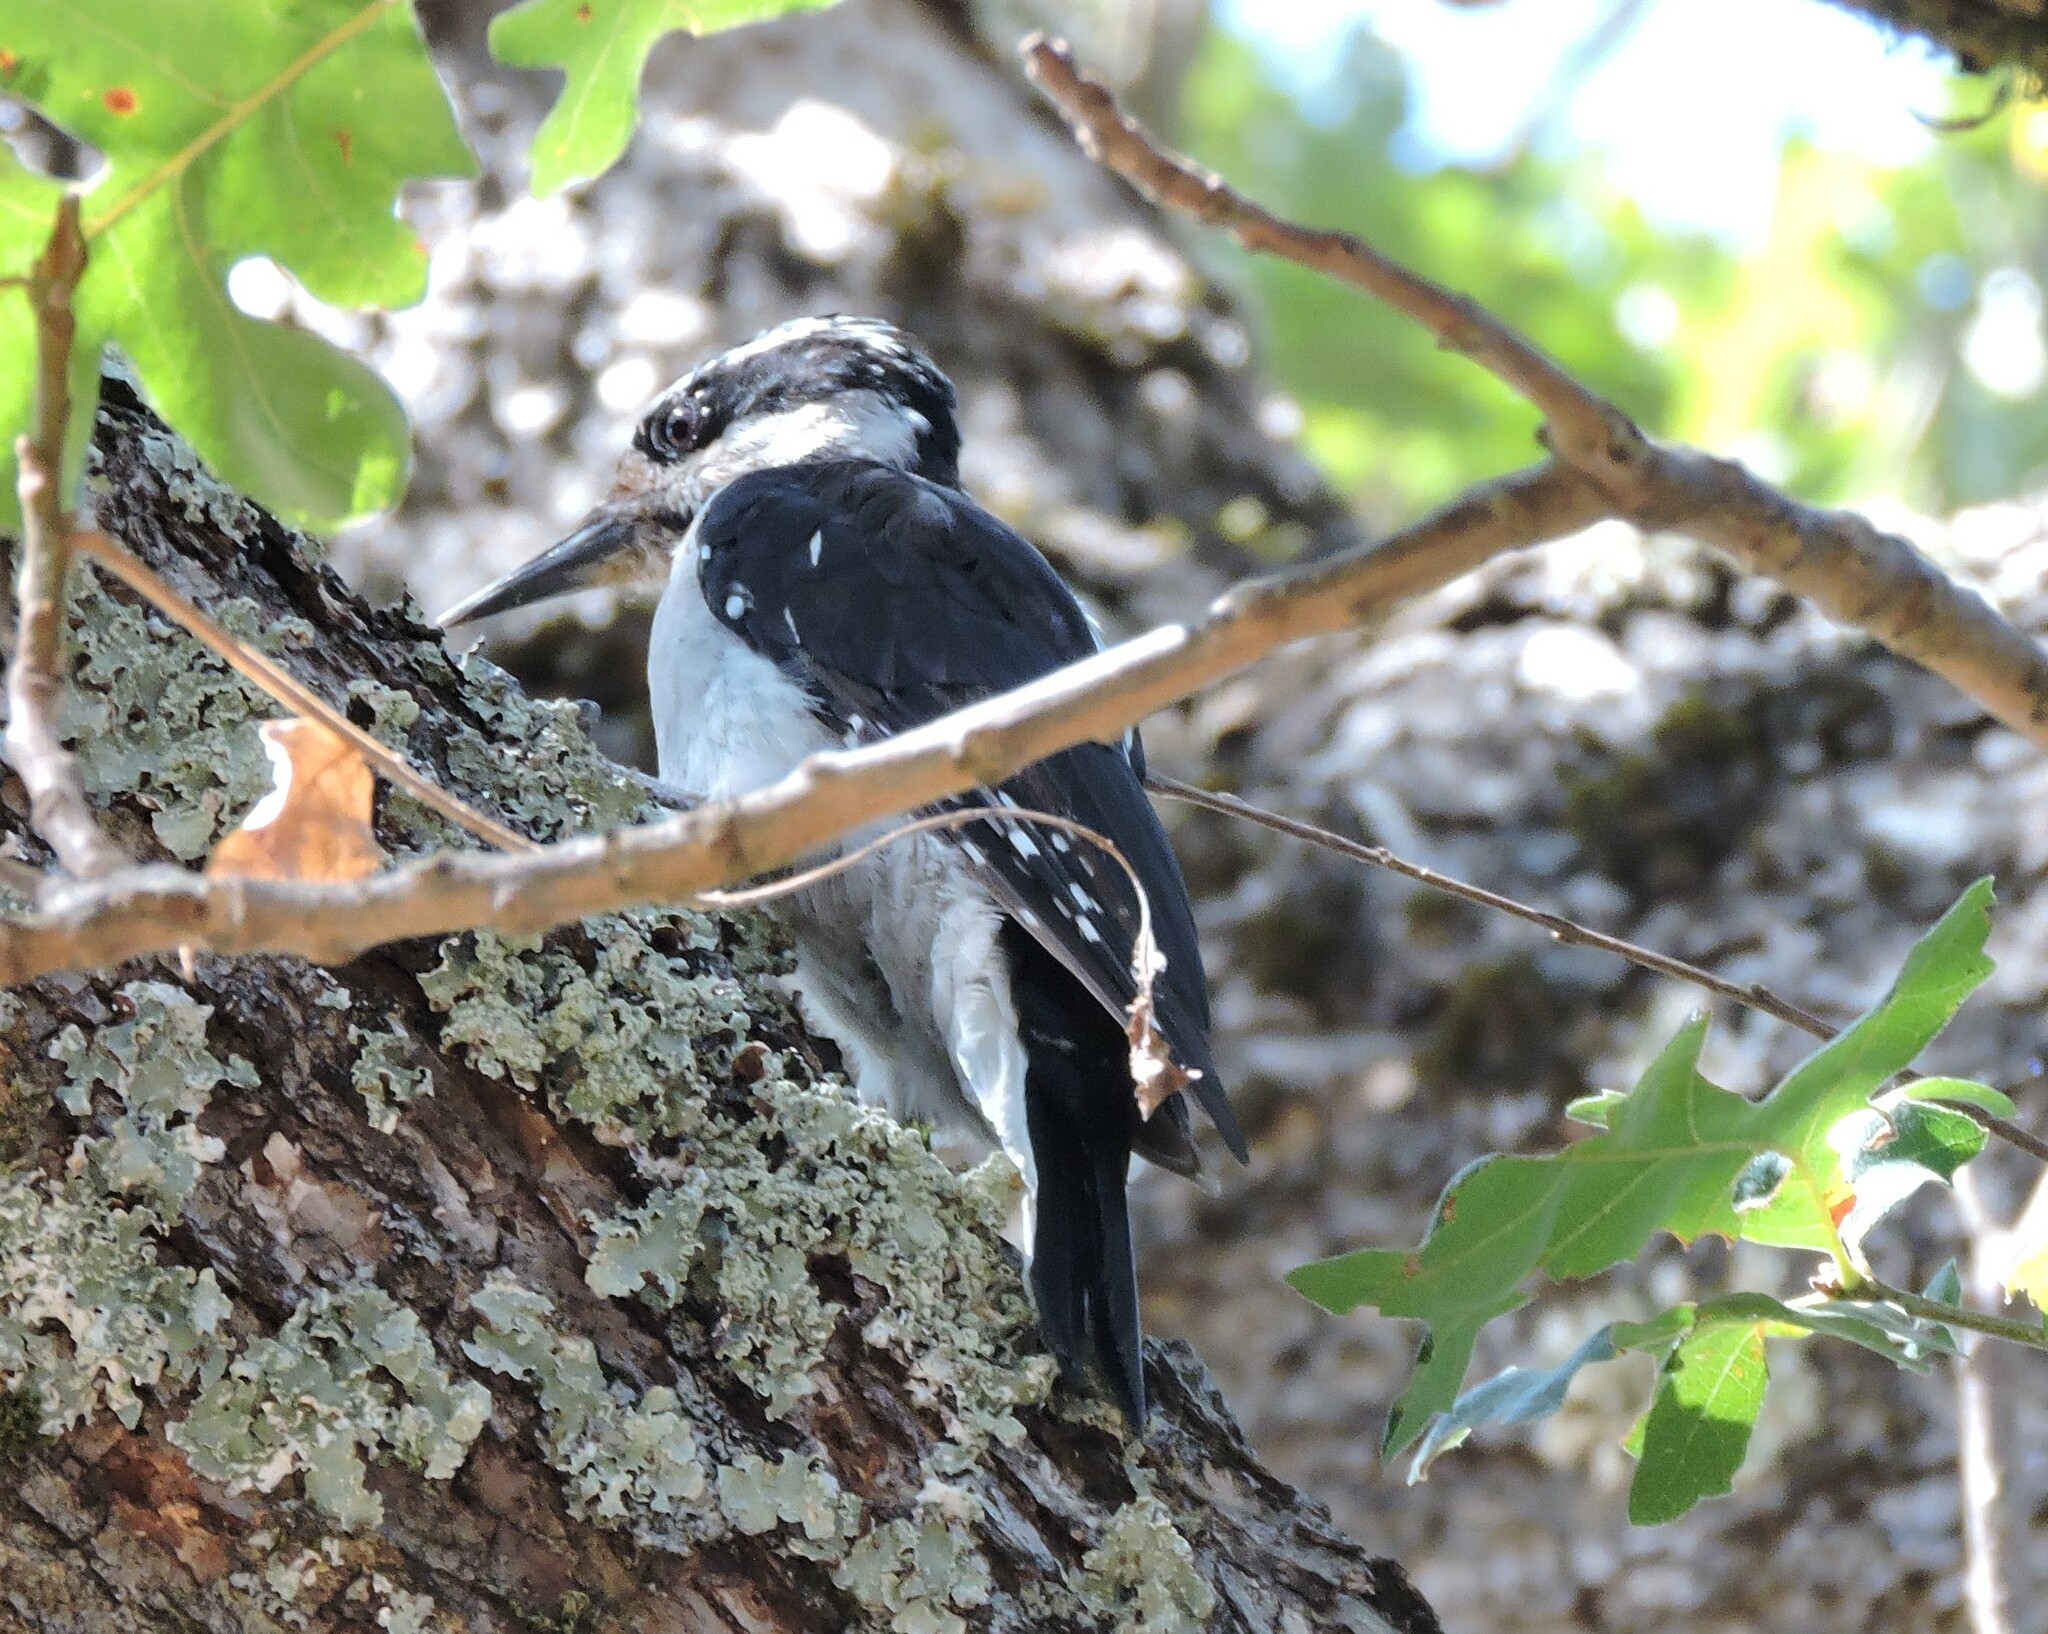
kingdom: Animalia
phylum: Chordata
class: Aves
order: Piciformes
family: Picidae
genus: Leuconotopicus
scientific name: Leuconotopicus villosus
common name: Hairy woodpecker
